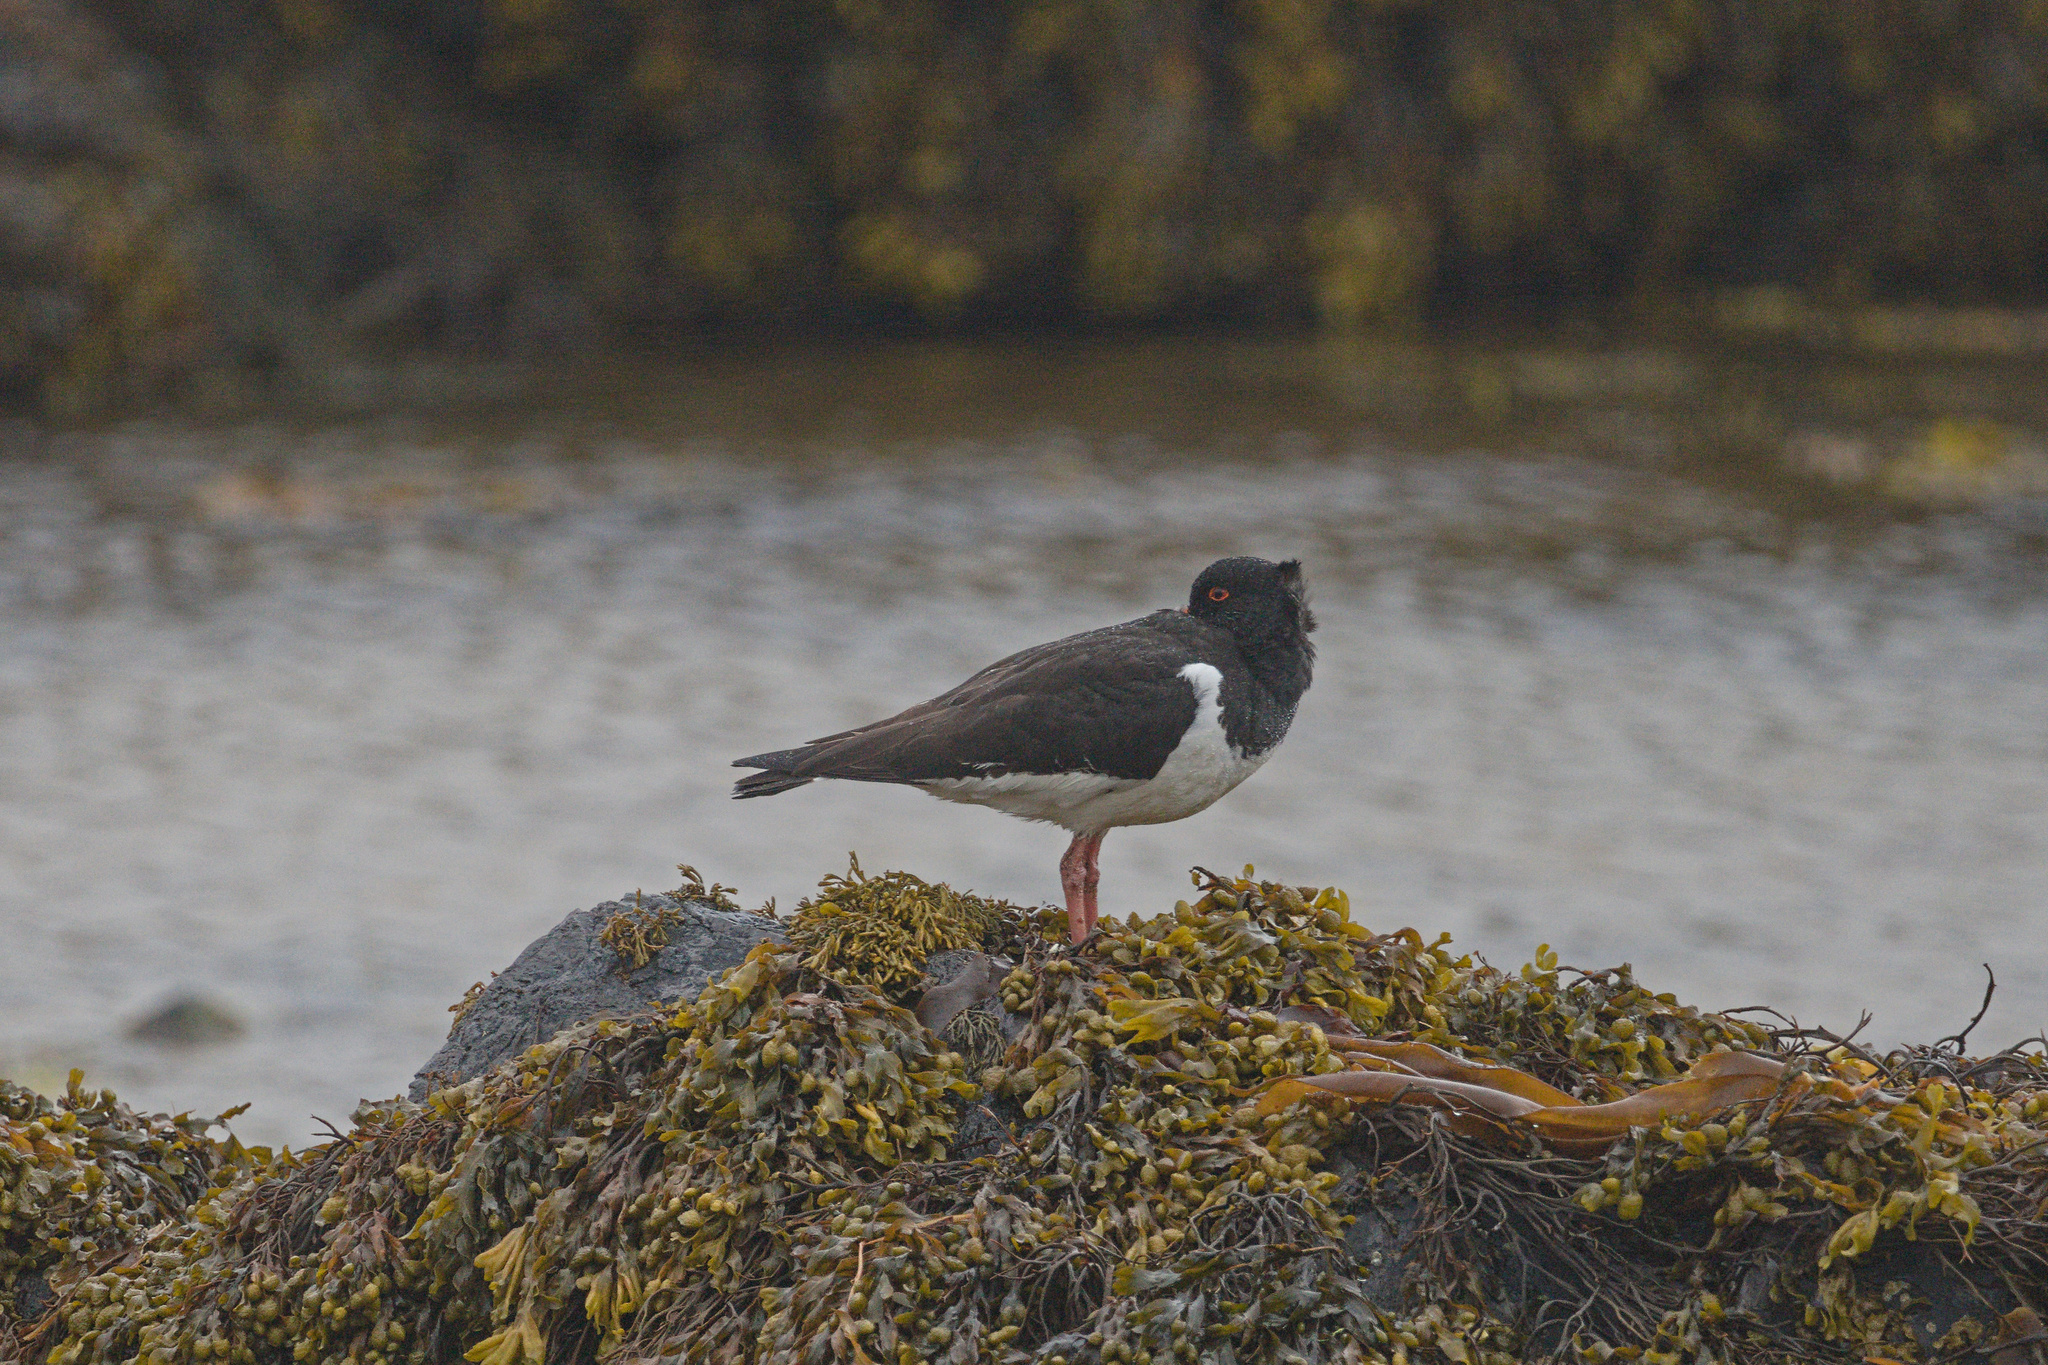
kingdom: Animalia
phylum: Chordata
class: Aves
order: Charadriiformes
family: Haematopodidae
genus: Haematopus
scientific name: Haematopus ostralegus
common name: Eurasian oystercatcher
